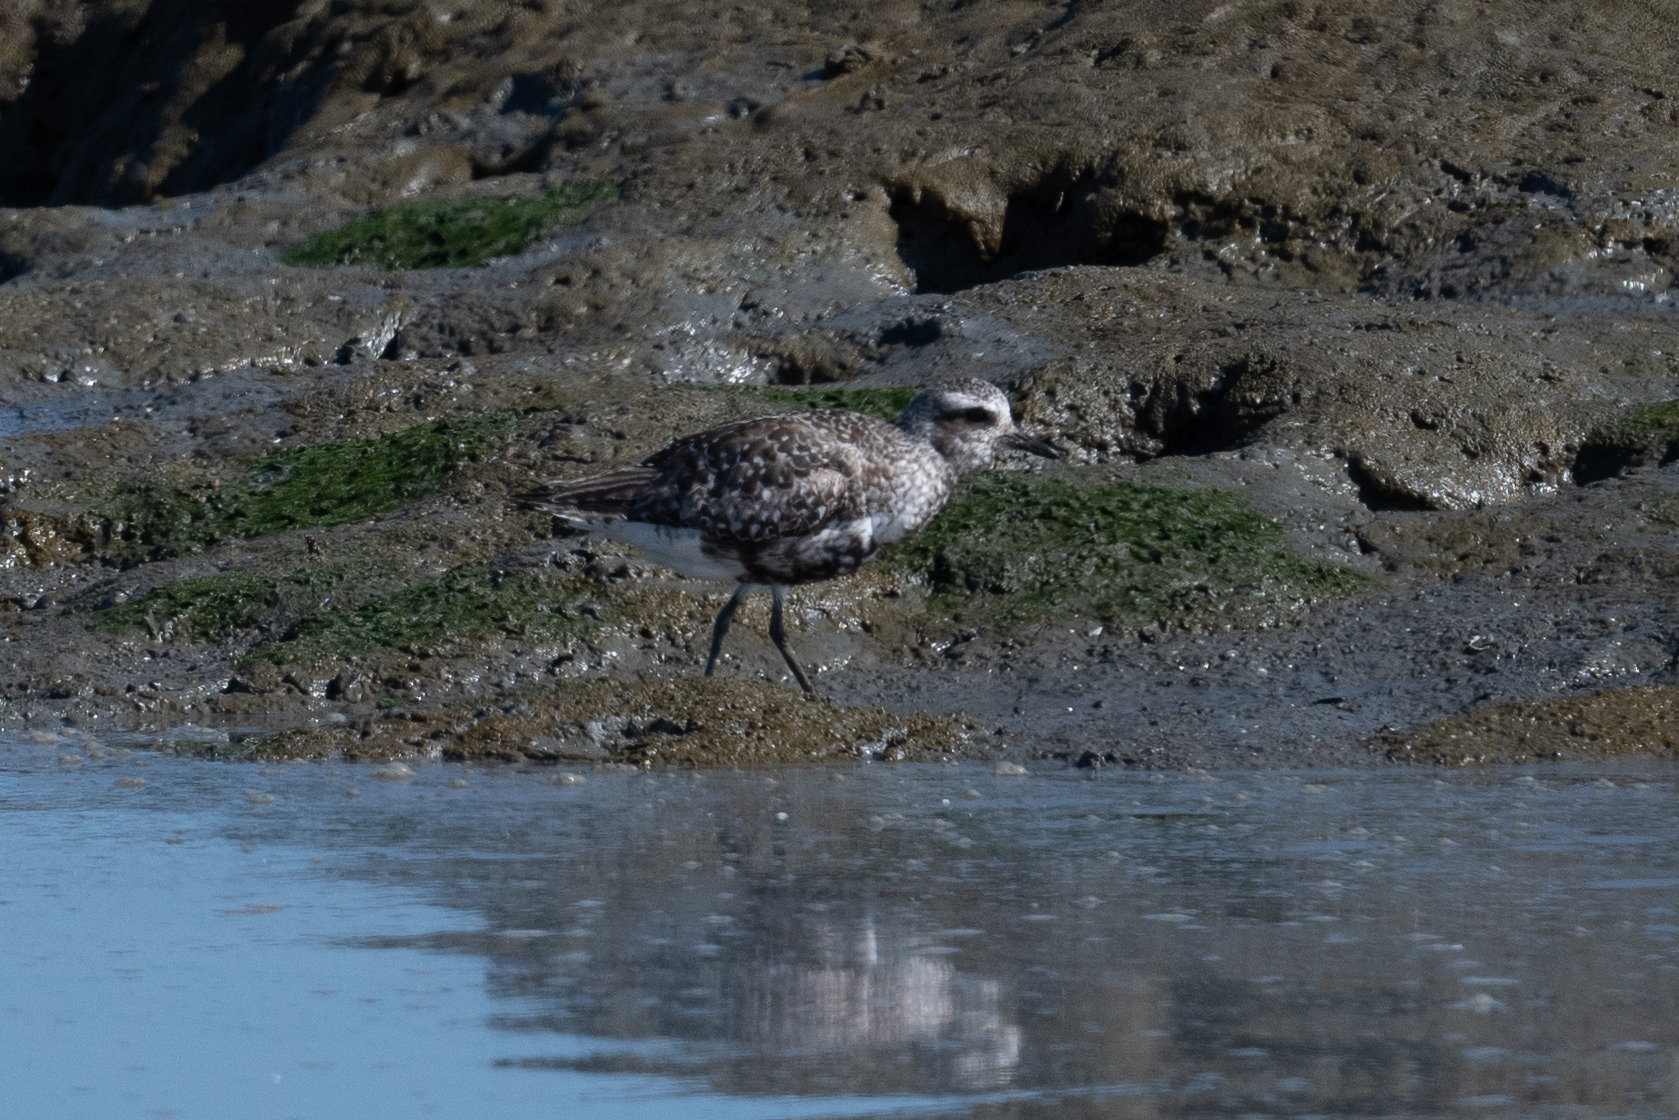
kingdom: Animalia
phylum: Chordata
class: Aves
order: Charadriiformes
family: Charadriidae
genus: Pluvialis
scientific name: Pluvialis squatarola
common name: Grey plover
